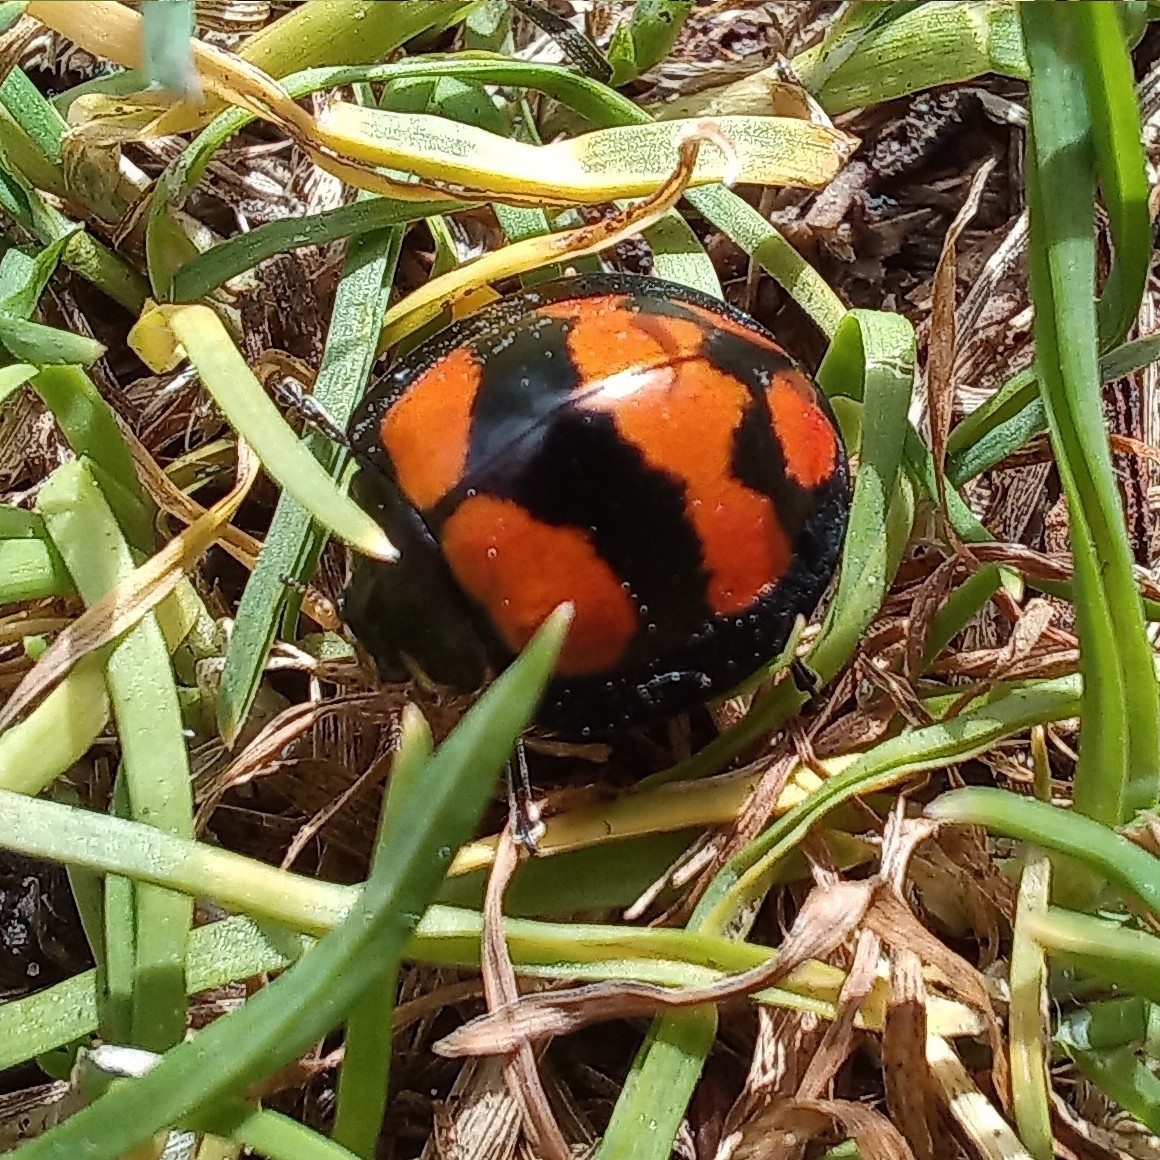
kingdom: Animalia
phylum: Arthropoda
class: Insecta
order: Coleoptera
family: Coccinellidae
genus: Neda
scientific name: Neda norrisi
